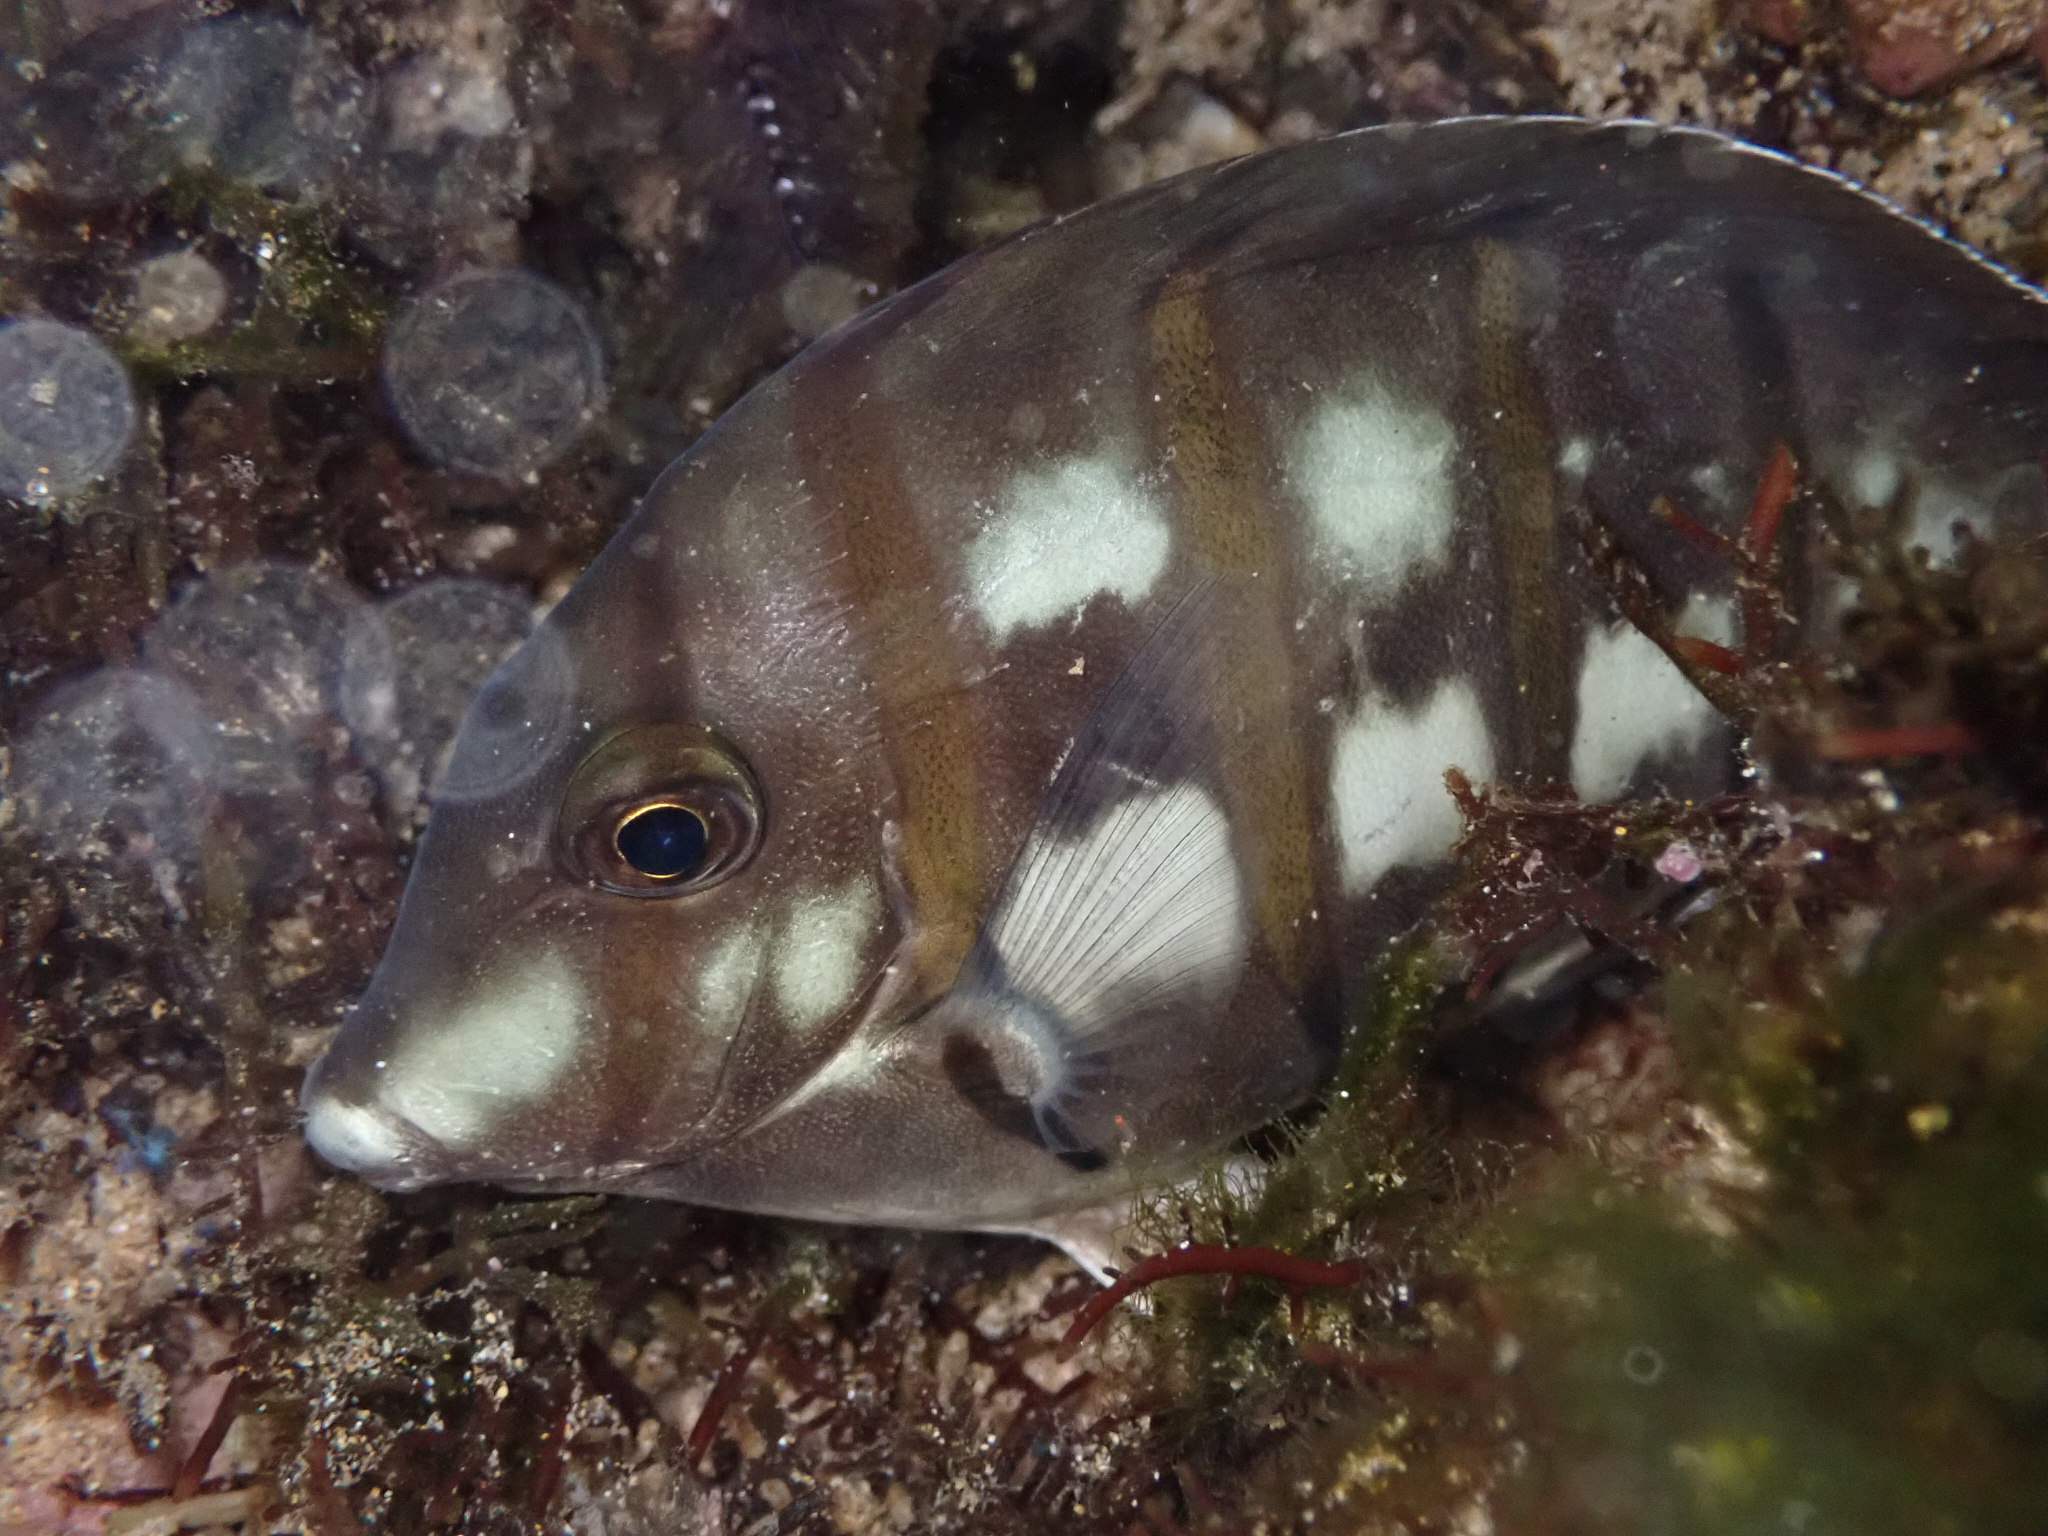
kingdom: Animalia
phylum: Chordata
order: Perciformes
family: Acanthuridae
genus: Acanthurus
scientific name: Acanthurus triostegus
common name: Convict surgeonfish
